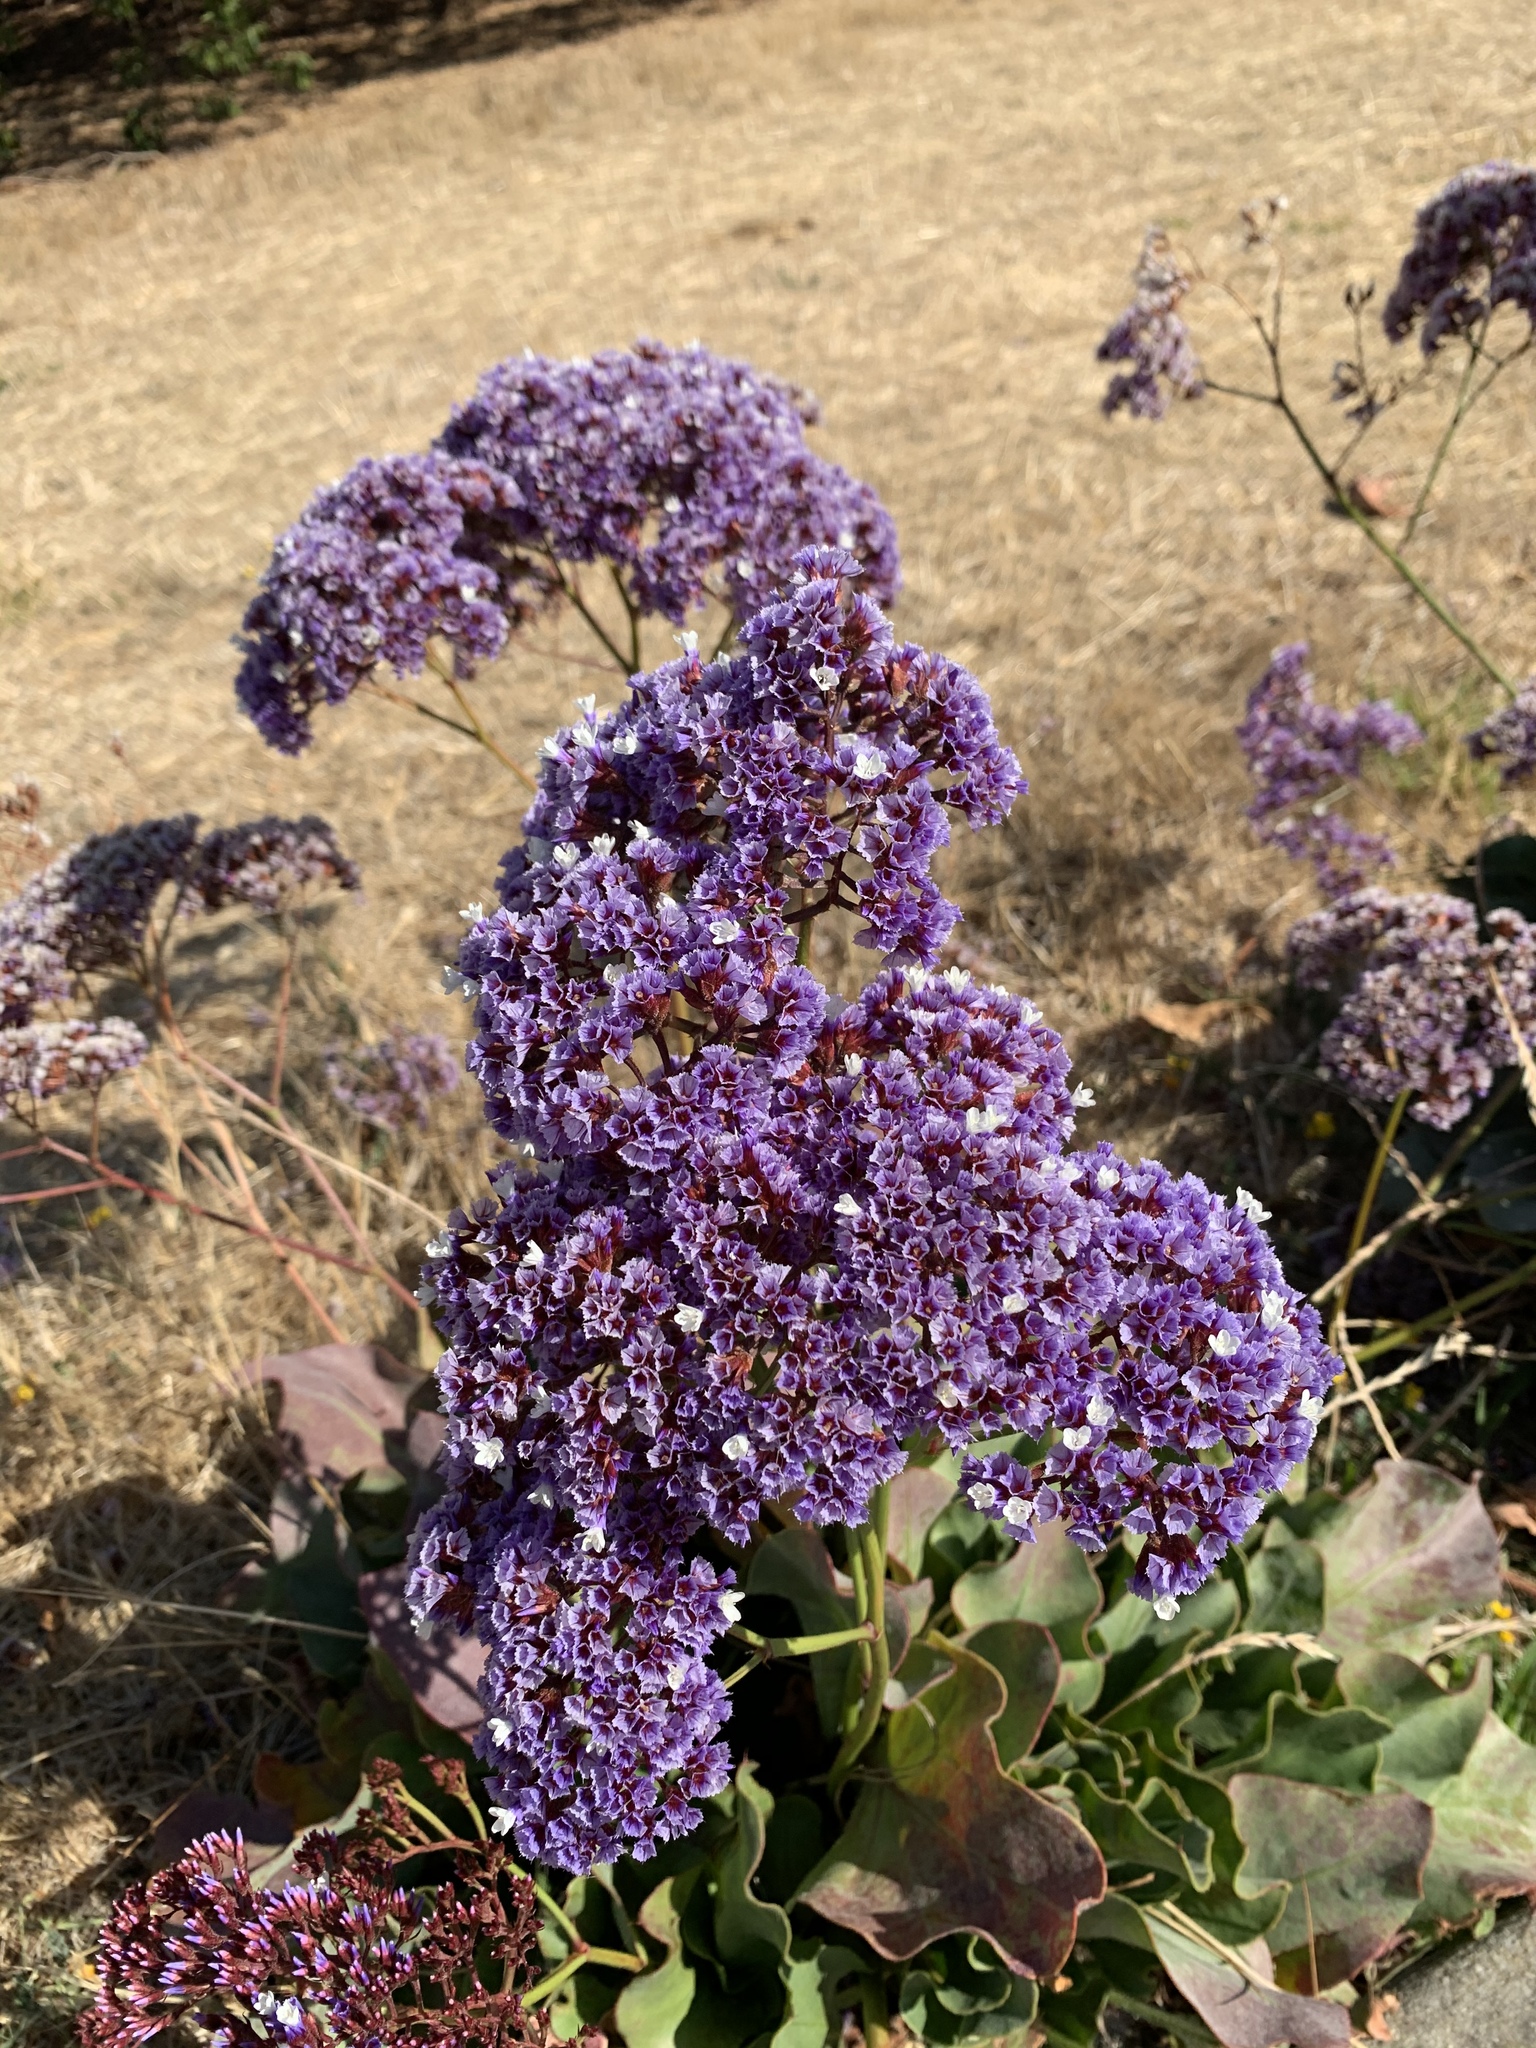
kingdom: Plantae
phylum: Tracheophyta
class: Magnoliopsida
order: Caryophyllales
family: Plumbaginaceae
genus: Limonium
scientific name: Limonium perezii
